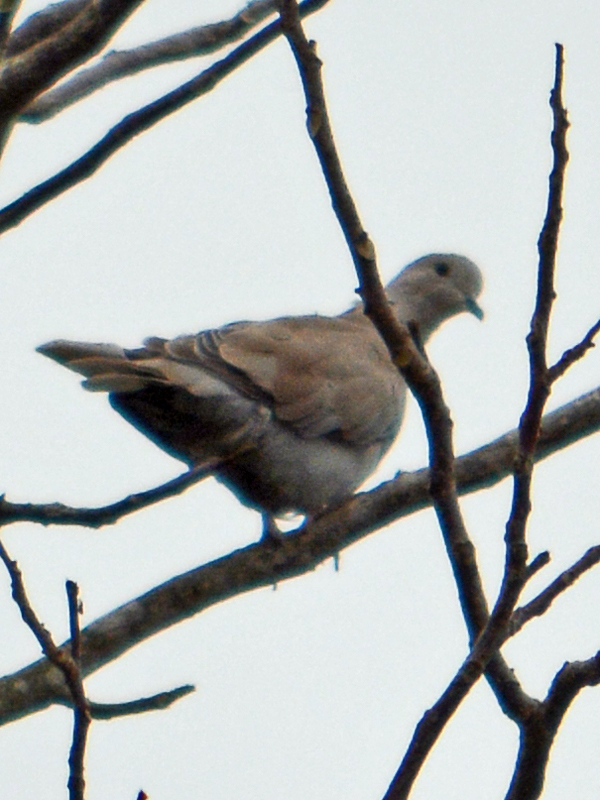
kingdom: Animalia
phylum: Chordata
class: Aves
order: Columbiformes
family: Columbidae
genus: Streptopelia
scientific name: Streptopelia decaocto
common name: Eurasian collared dove
